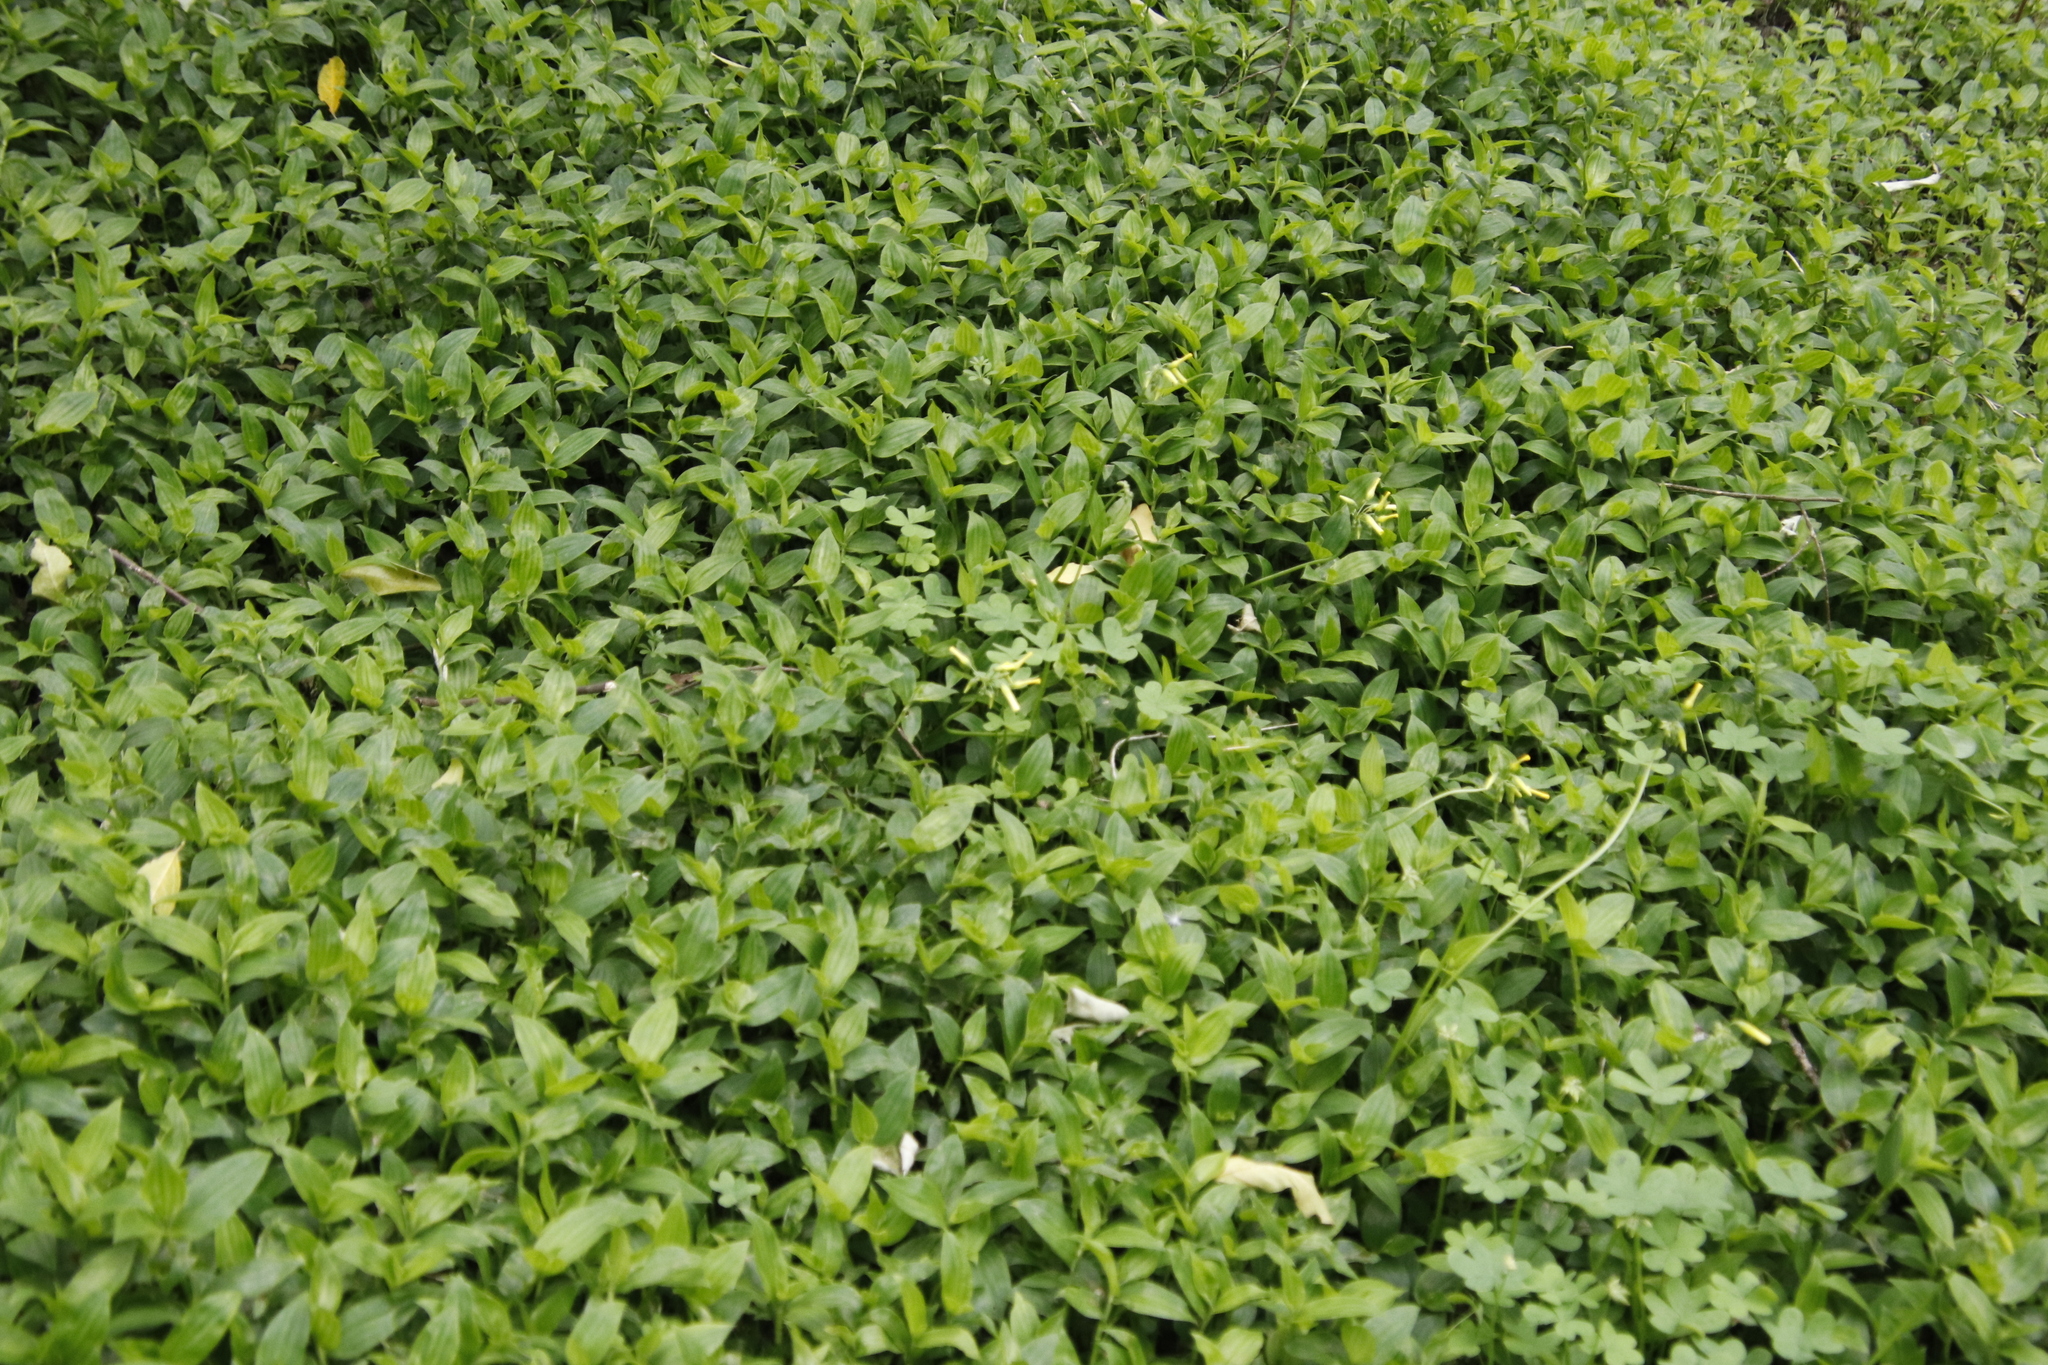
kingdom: Plantae
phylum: Tracheophyta
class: Liliopsida
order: Commelinales
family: Commelinaceae
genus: Tradescantia
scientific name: Tradescantia fluminensis
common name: Wandering-jew
